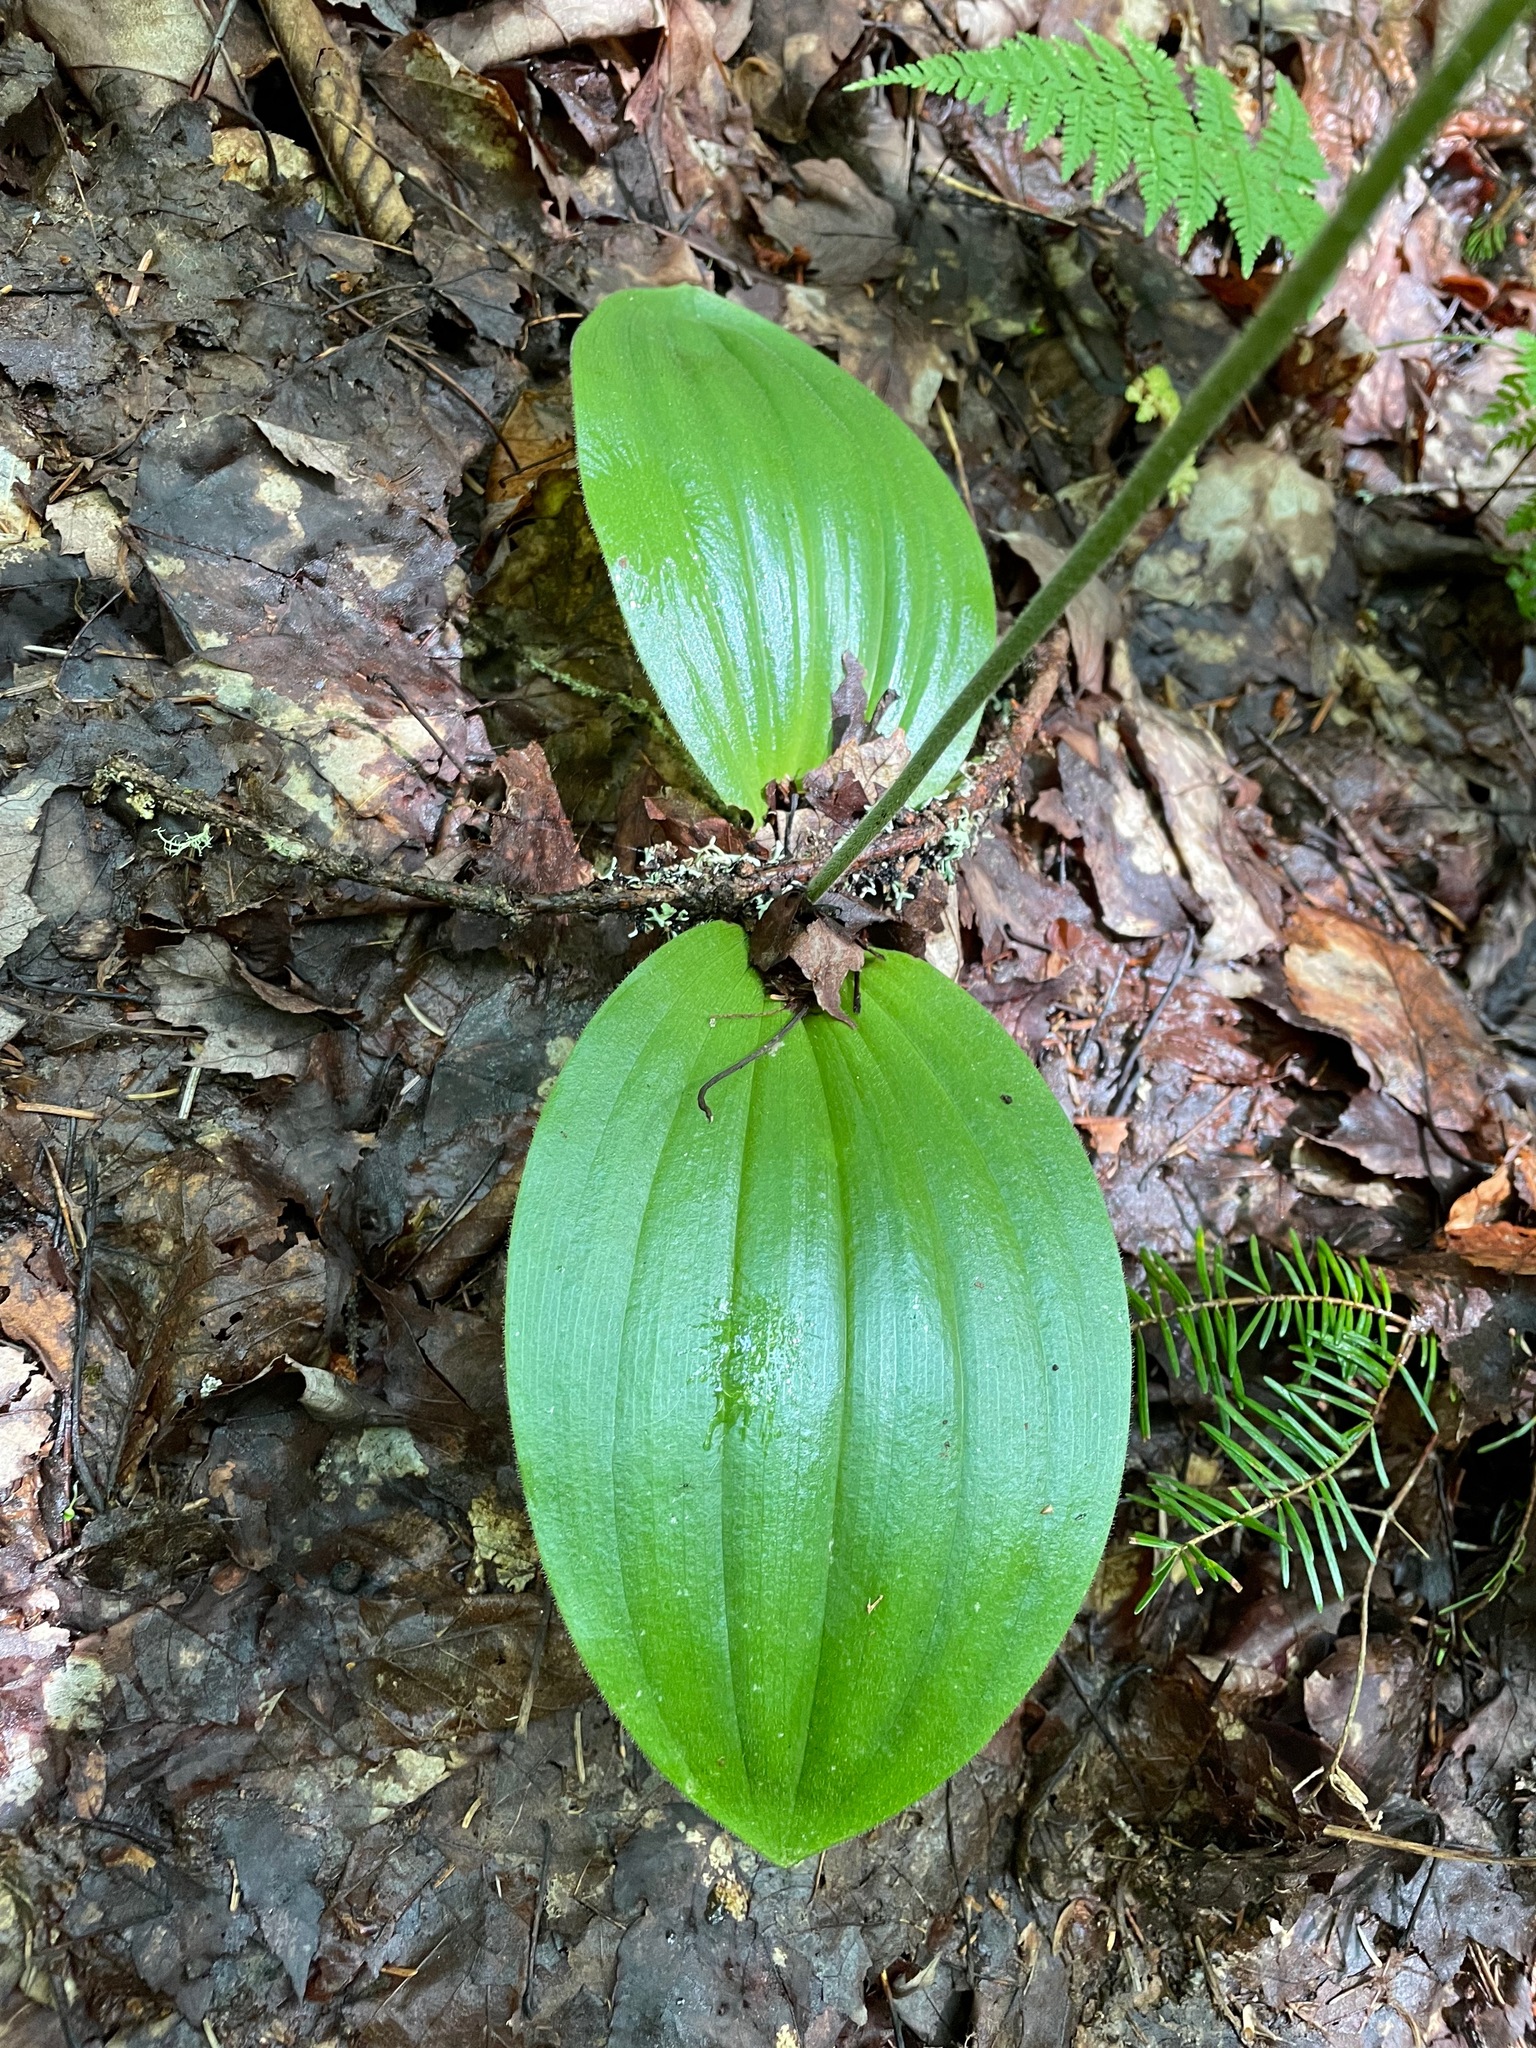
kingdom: Plantae
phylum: Tracheophyta
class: Liliopsida
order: Asparagales
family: Orchidaceae
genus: Cypripedium
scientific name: Cypripedium acaule
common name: Pink lady's-slipper
